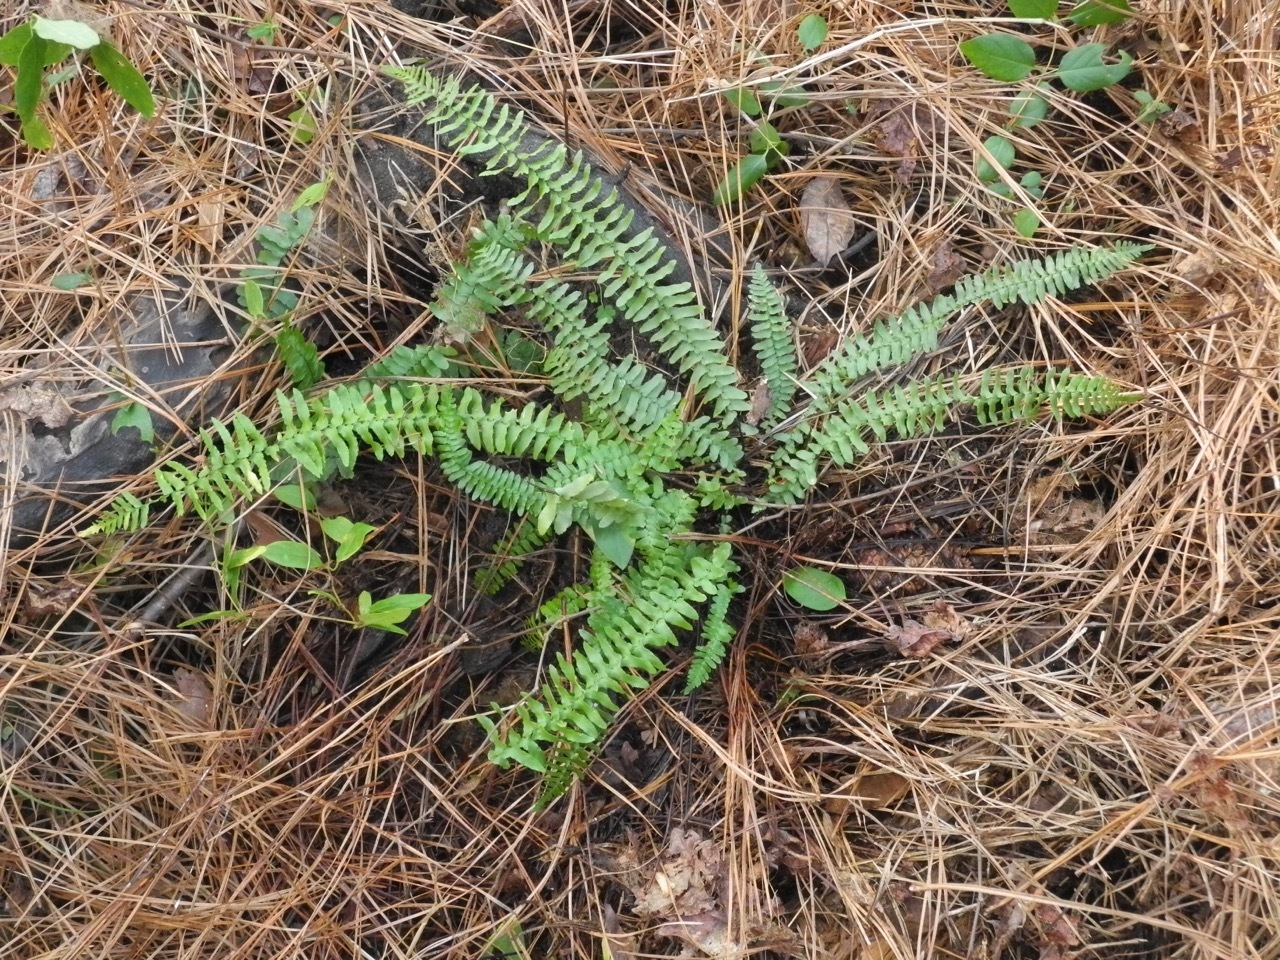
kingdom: Plantae
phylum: Tracheophyta
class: Polypodiopsida
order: Polypodiales
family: Aspleniaceae
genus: Asplenium
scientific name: Asplenium platyneuron
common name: Ebony spleenwort
